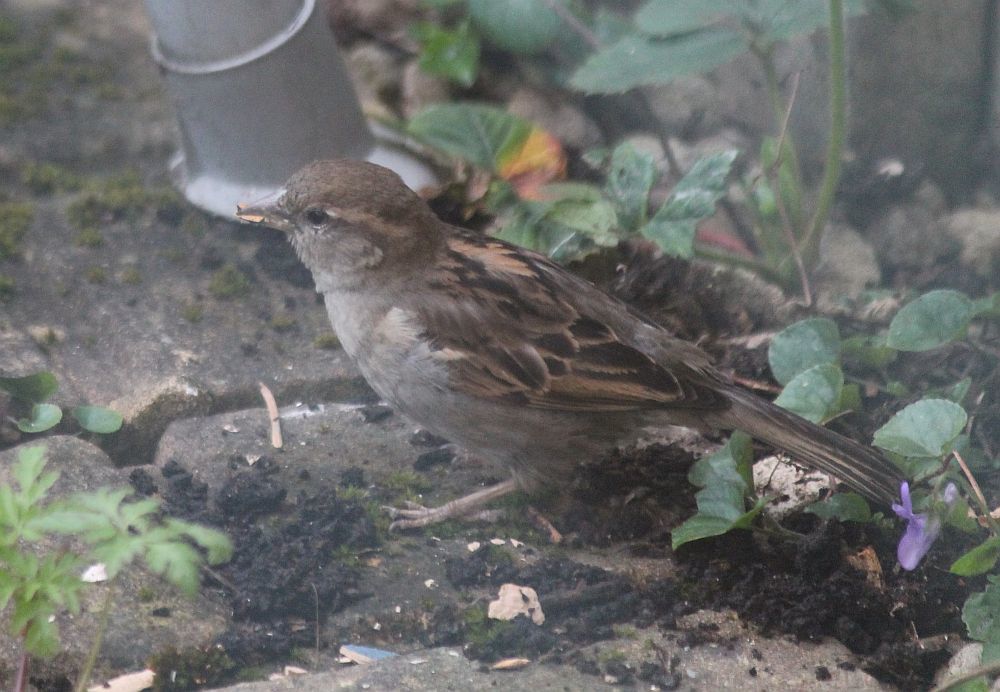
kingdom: Animalia
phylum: Chordata
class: Aves
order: Passeriformes
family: Passeridae
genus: Passer
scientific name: Passer domesticus
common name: House sparrow
